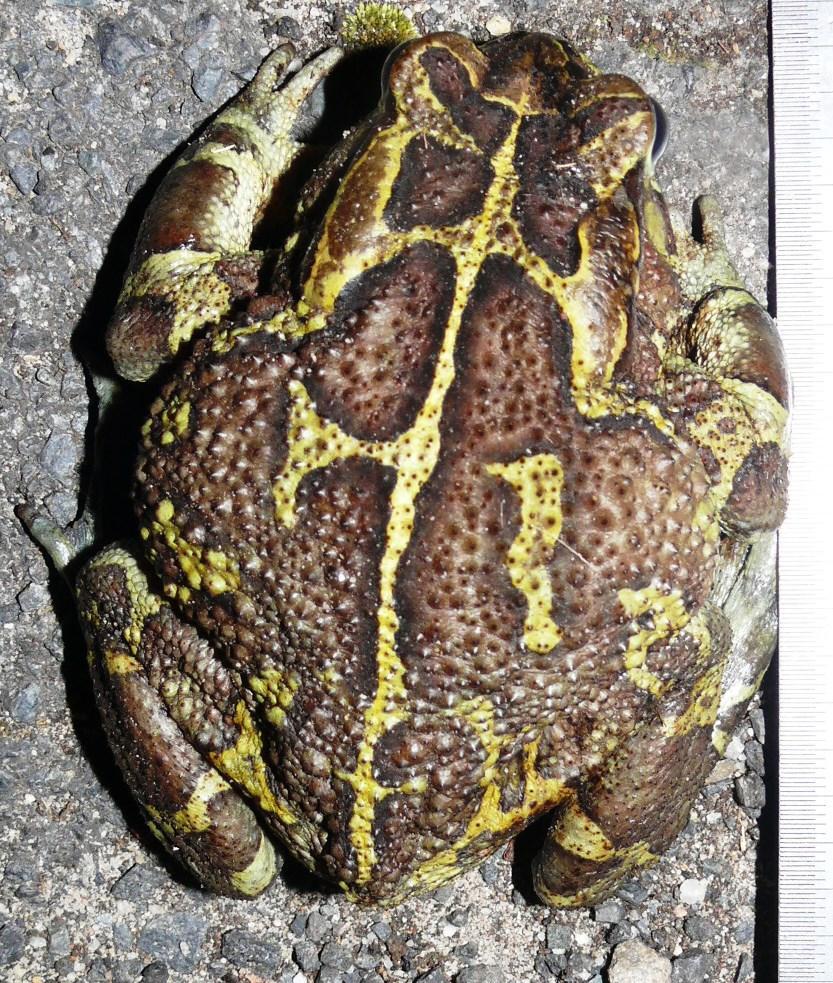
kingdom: Animalia
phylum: Chordata
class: Amphibia
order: Anura
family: Bufonidae
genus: Sclerophrys
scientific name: Sclerophrys pantherina
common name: Panther toad
